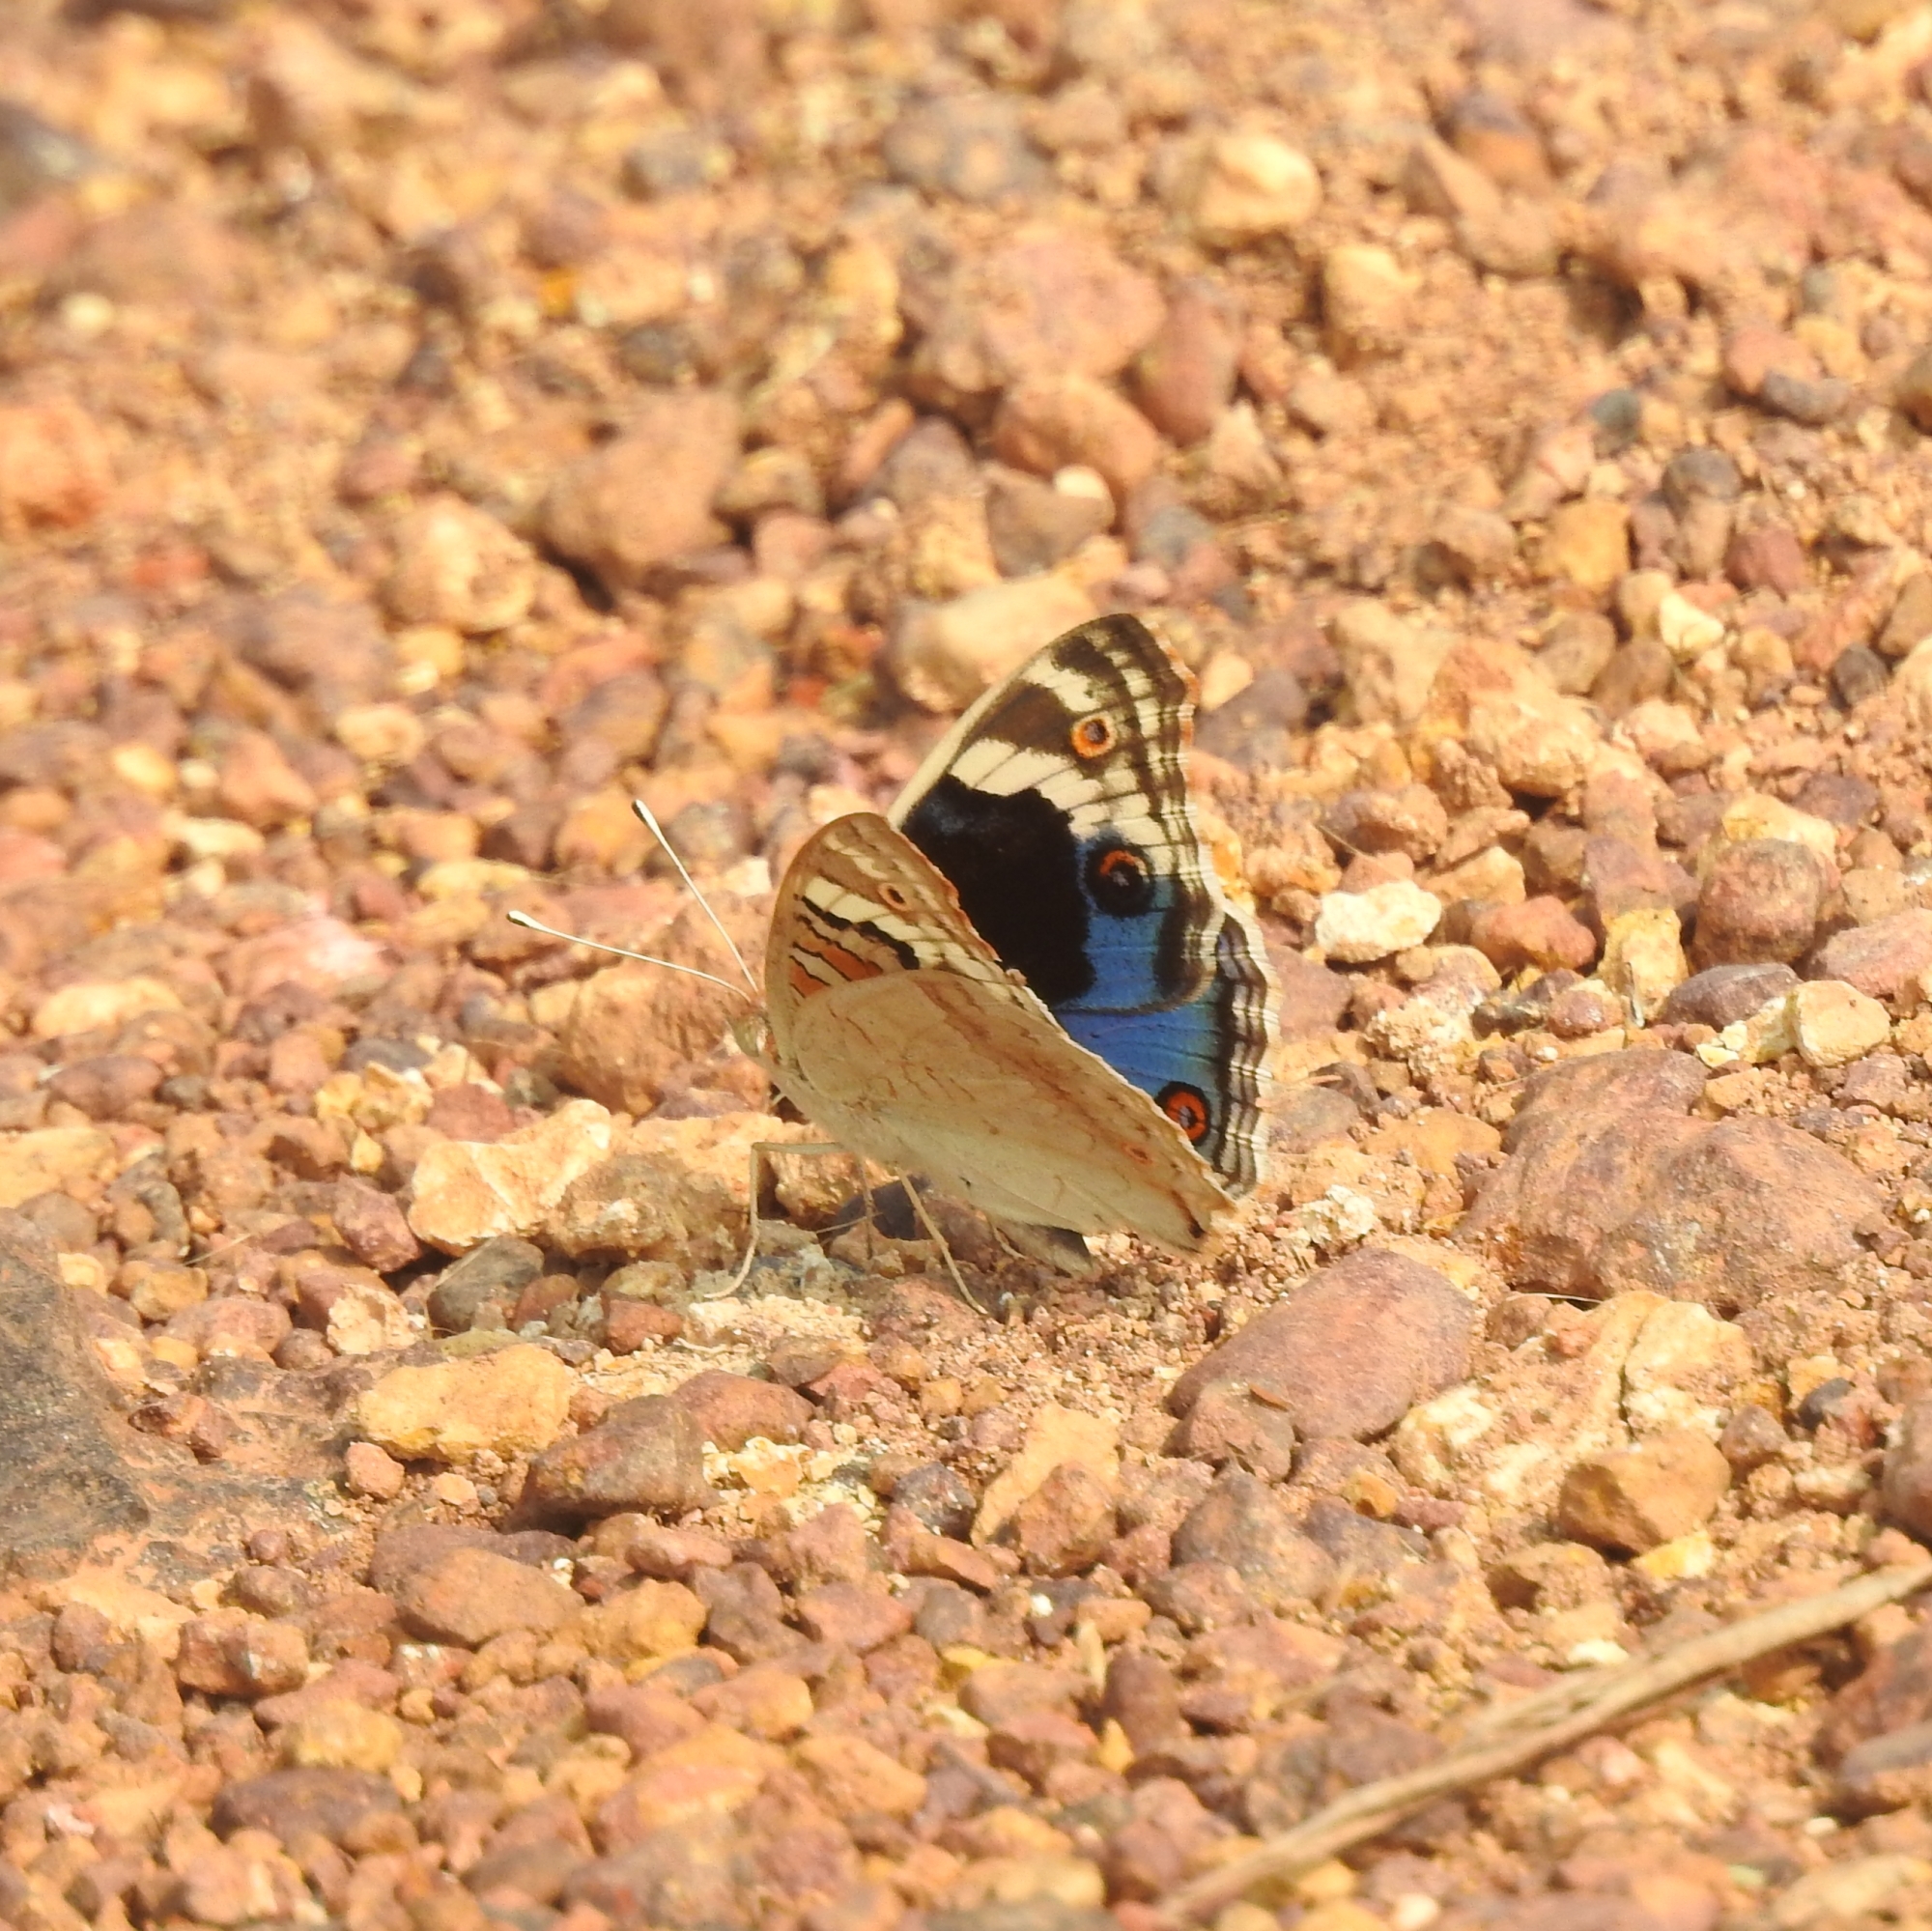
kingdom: Animalia
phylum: Arthropoda
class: Insecta
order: Lepidoptera
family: Nymphalidae
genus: Junonia
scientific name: Junonia orithya
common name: Blue pansy
